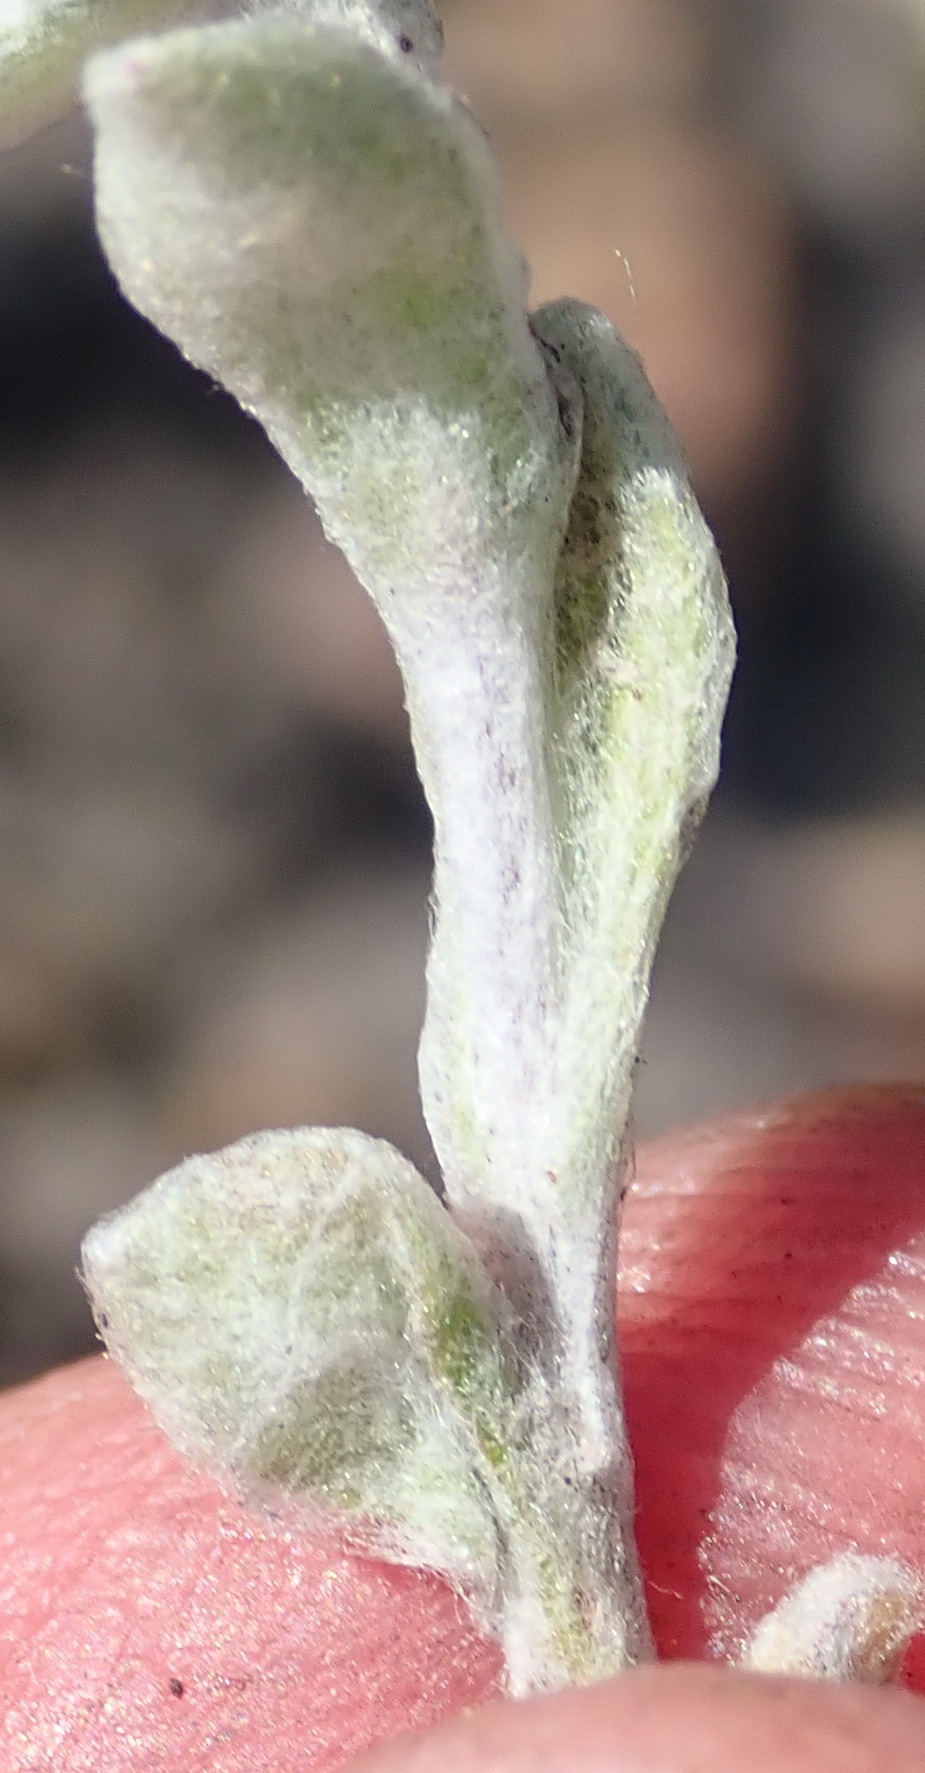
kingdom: Plantae
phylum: Tracheophyta
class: Magnoliopsida
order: Asterales
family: Asteraceae
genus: Helichrysum
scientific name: Helichrysum tinctum
